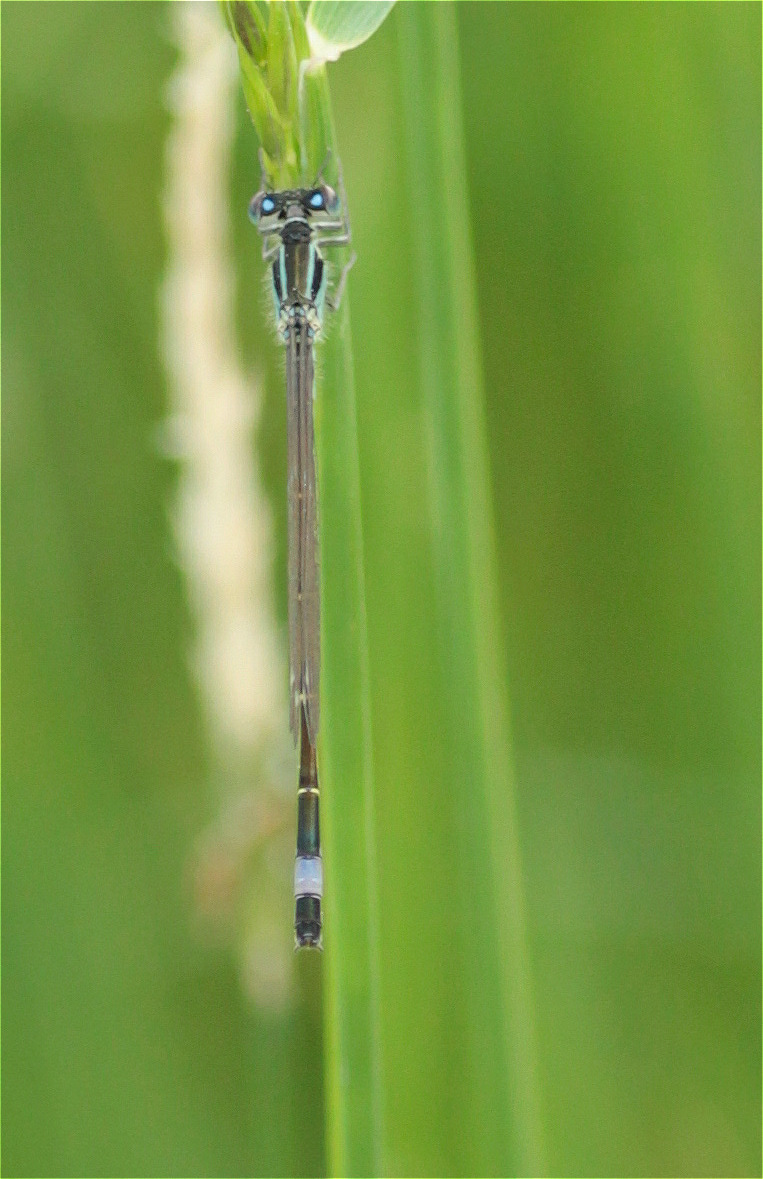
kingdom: Animalia
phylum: Arthropoda
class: Insecta
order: Odonata
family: Coenagrionidae
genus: Ischnura
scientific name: Ischnura elegans
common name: Blue-tailed damselfly
